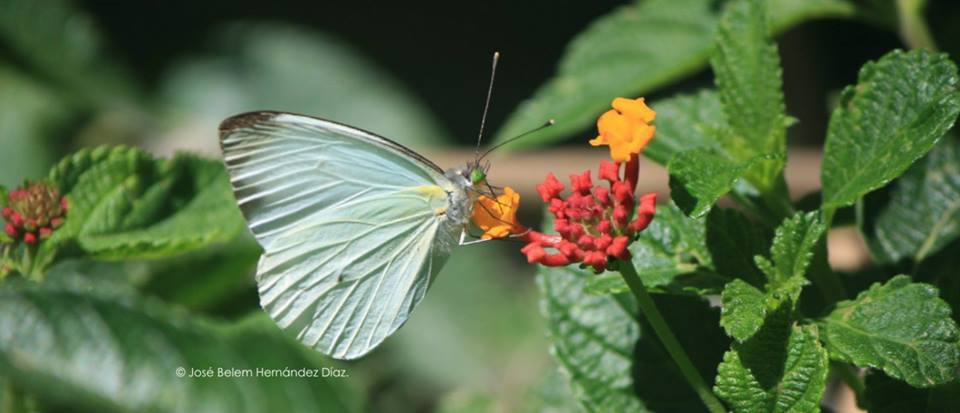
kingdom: Animalia
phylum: Arthropoda
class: Insecta
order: Lepidoptera
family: Pieridae
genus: Leptophobia
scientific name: Leptophobia aripa
